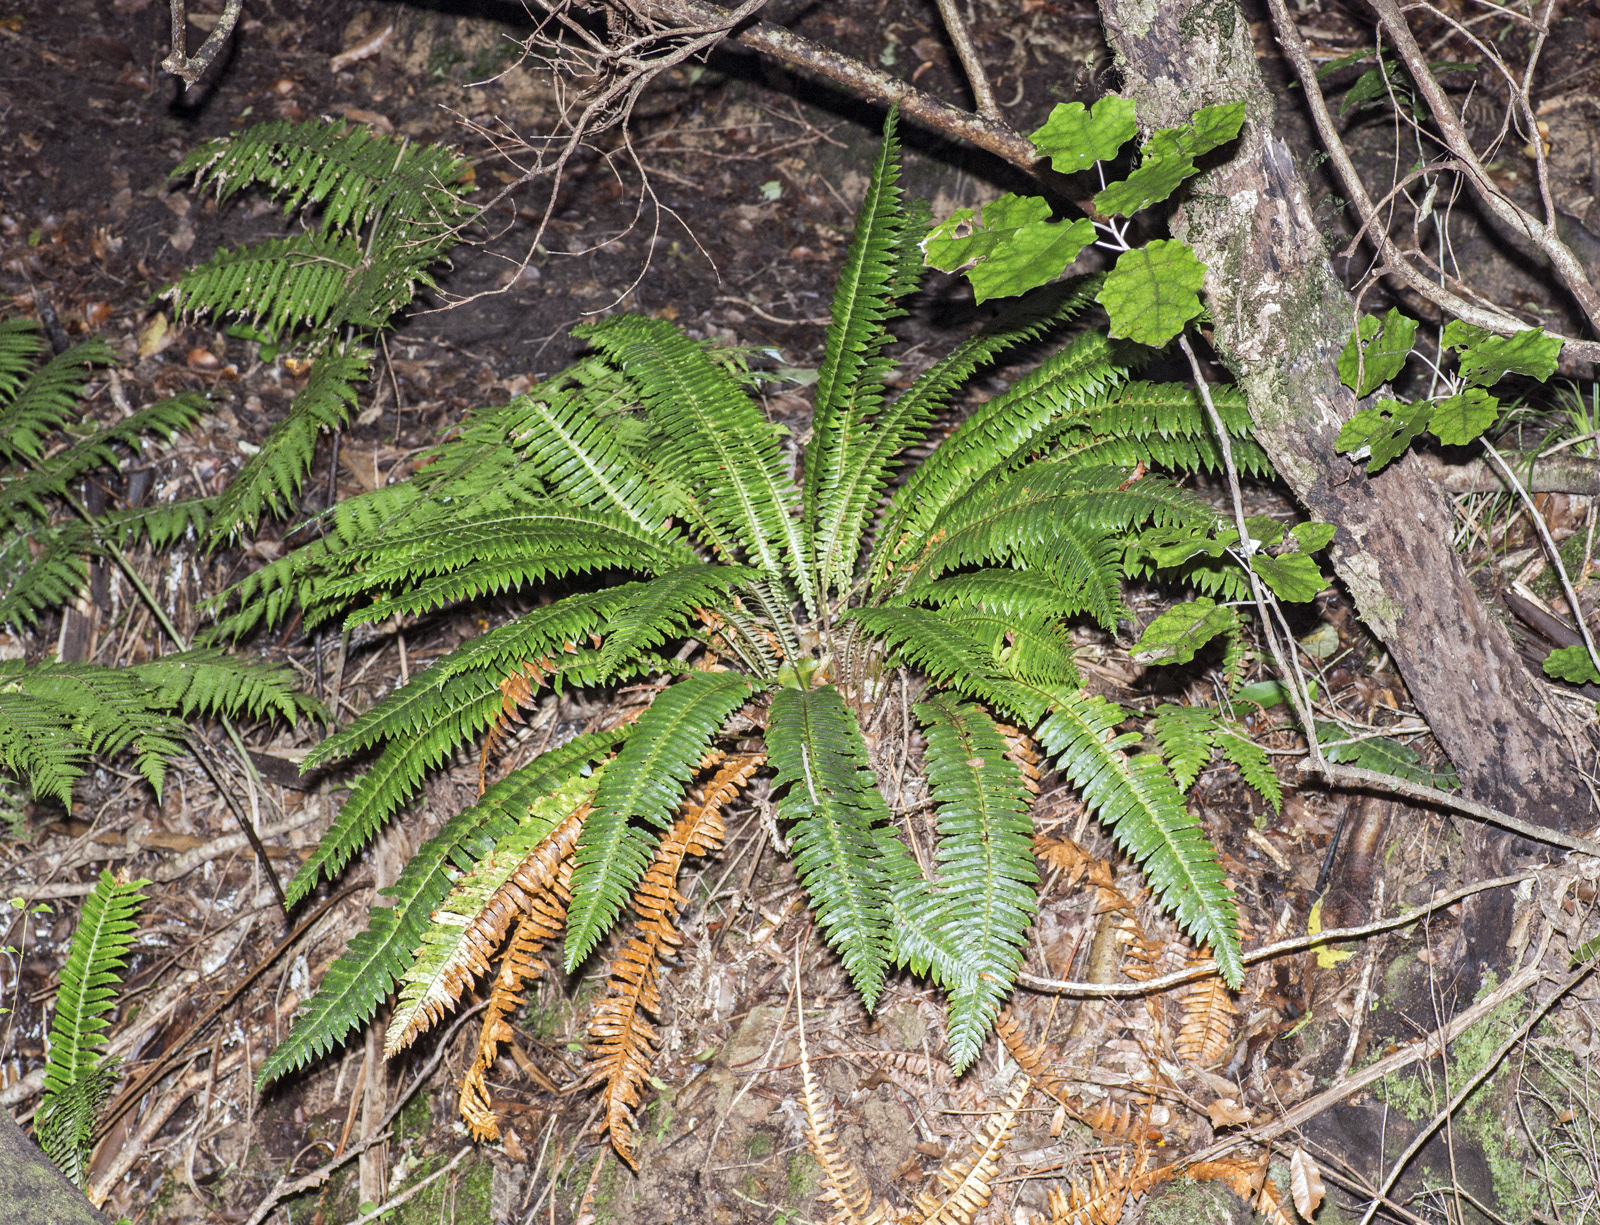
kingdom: Plantae
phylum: Tracheophyta
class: Polypodiopsida
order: Polypodiales
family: Blechnaceae
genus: Lomaria
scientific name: Lomaria discolor
